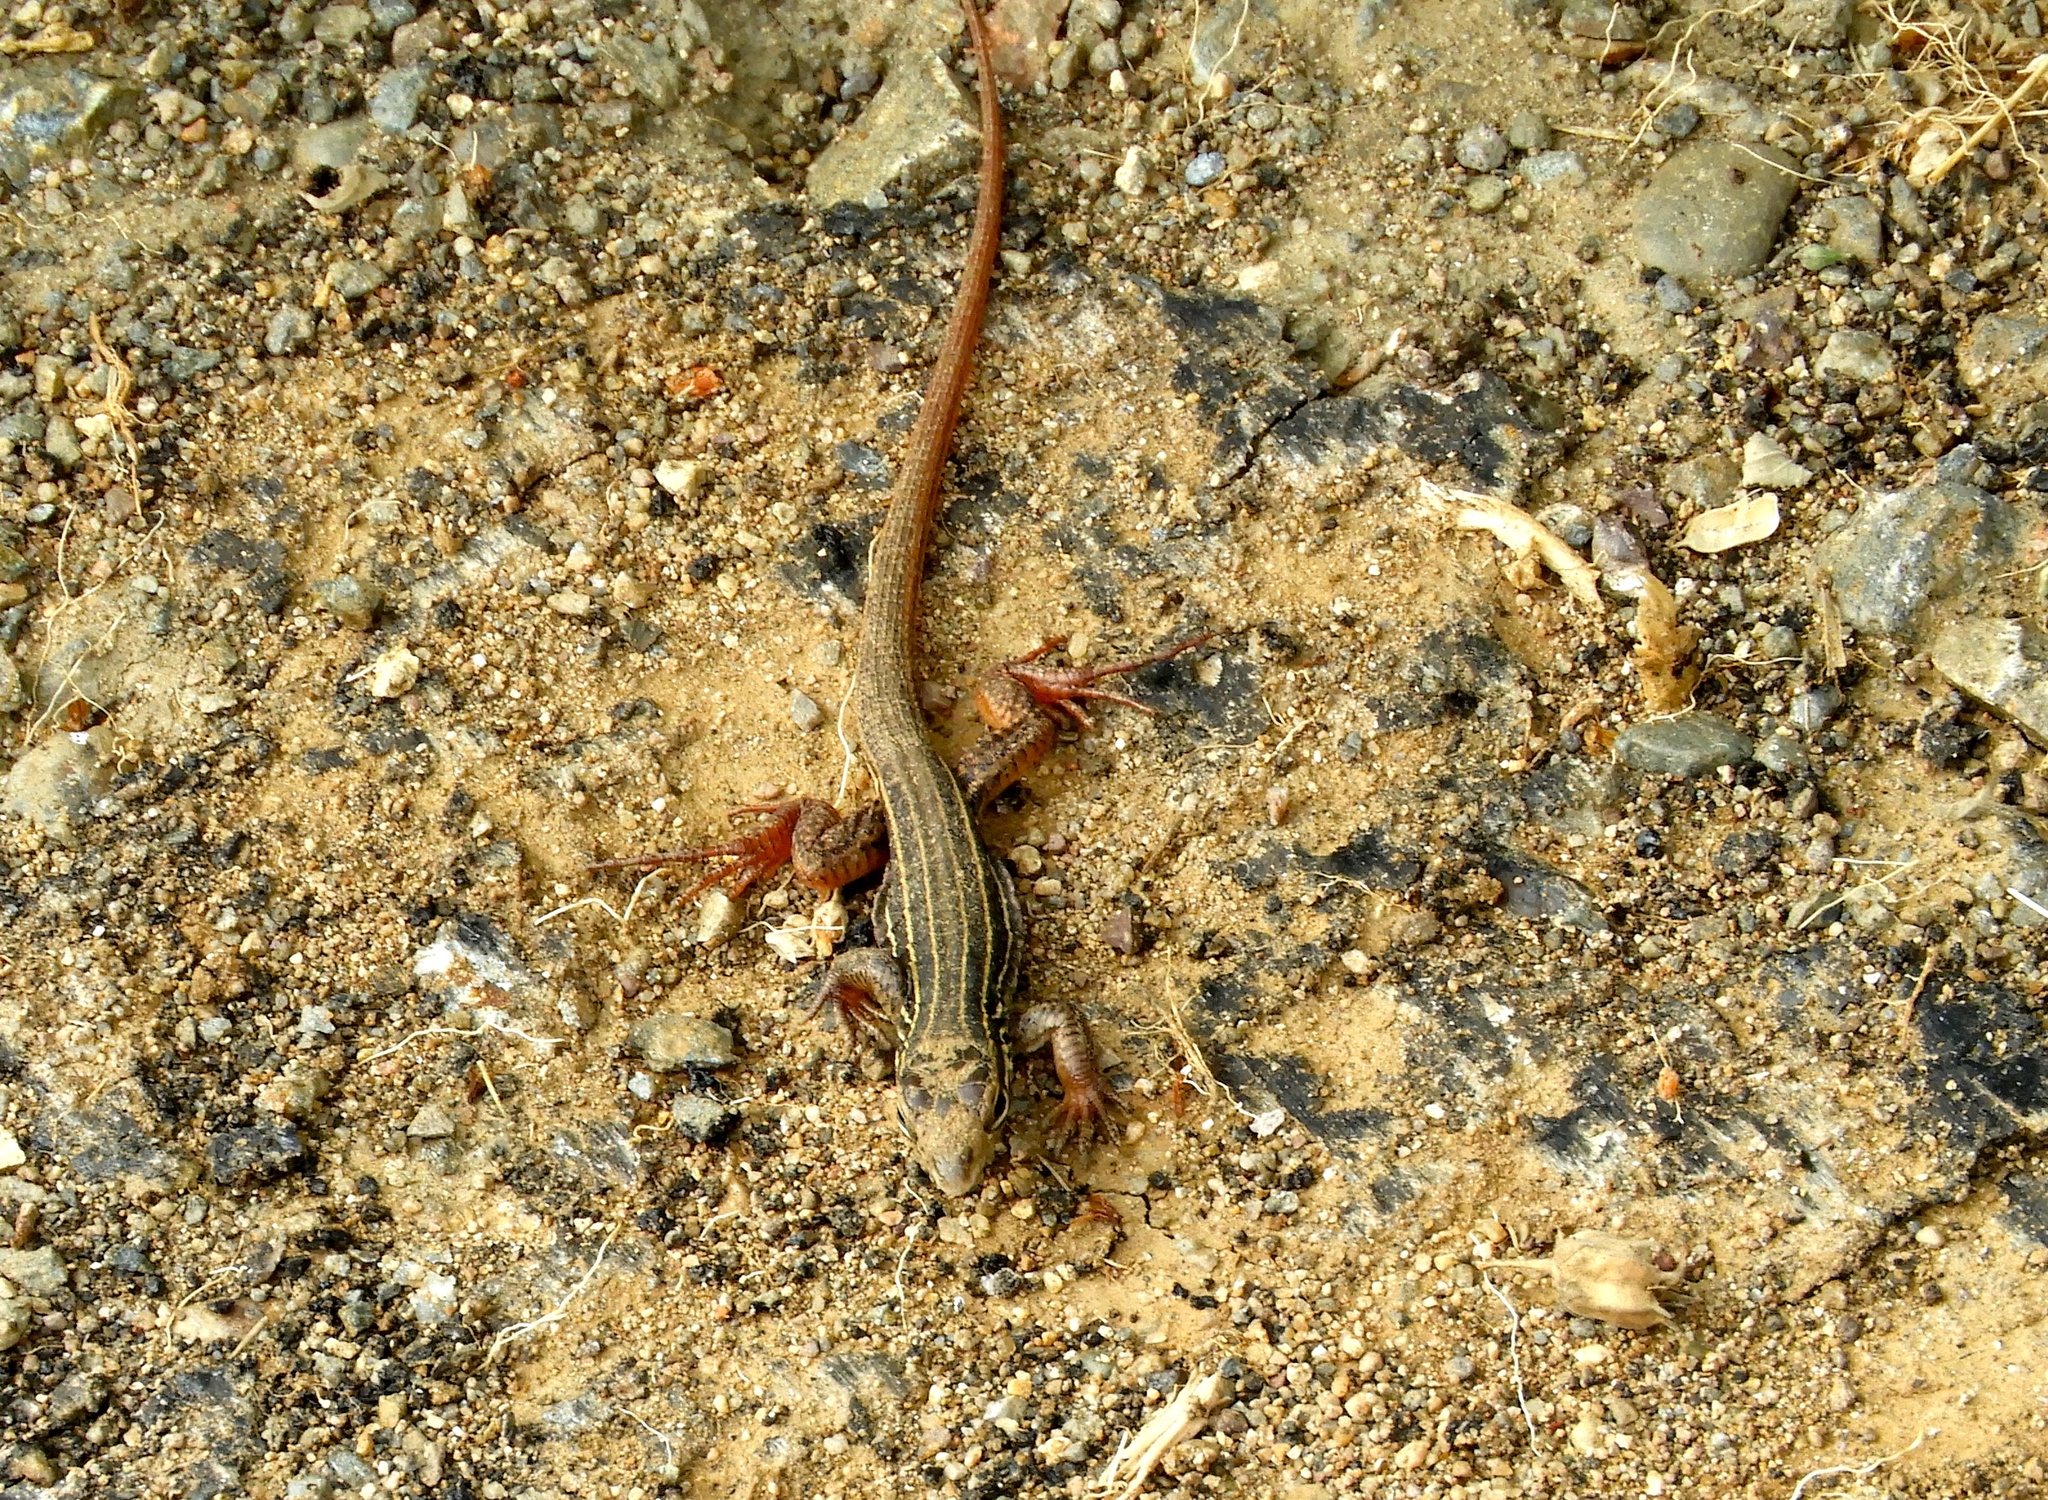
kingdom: Animalia
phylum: Chordata
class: Squamata
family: Teiidae
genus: Aspidoscelis
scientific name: Aspidoscelis costatus
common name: Western mexico whiptail
